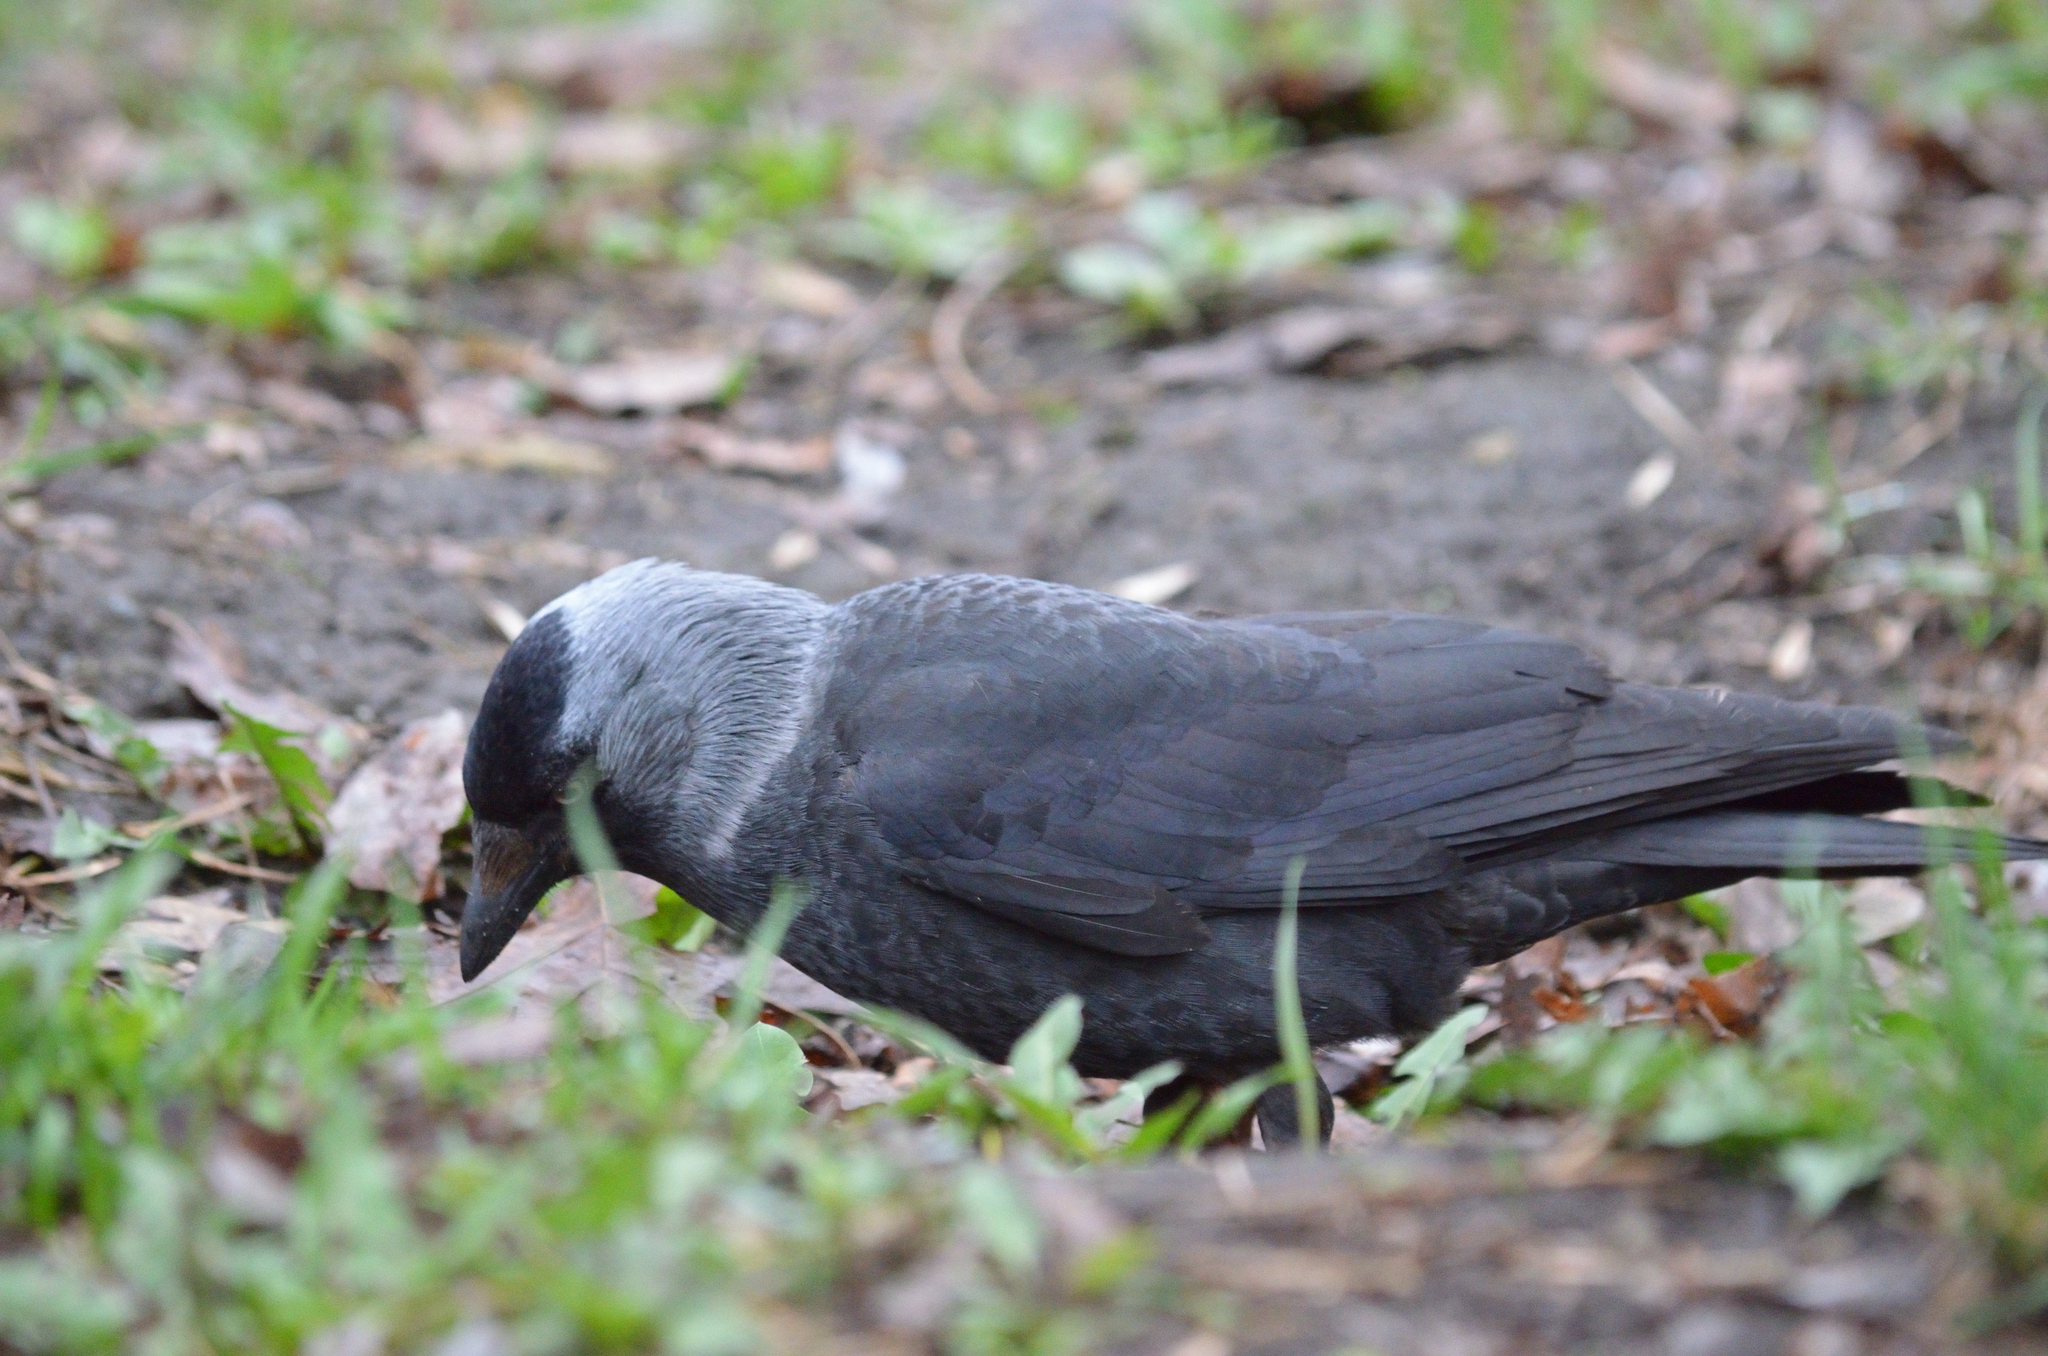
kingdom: Animalia
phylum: Chordata
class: Aves
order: Passeriformes
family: Corvidae
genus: Coloeus
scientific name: Coloeus monedula
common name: Western jackdaw
